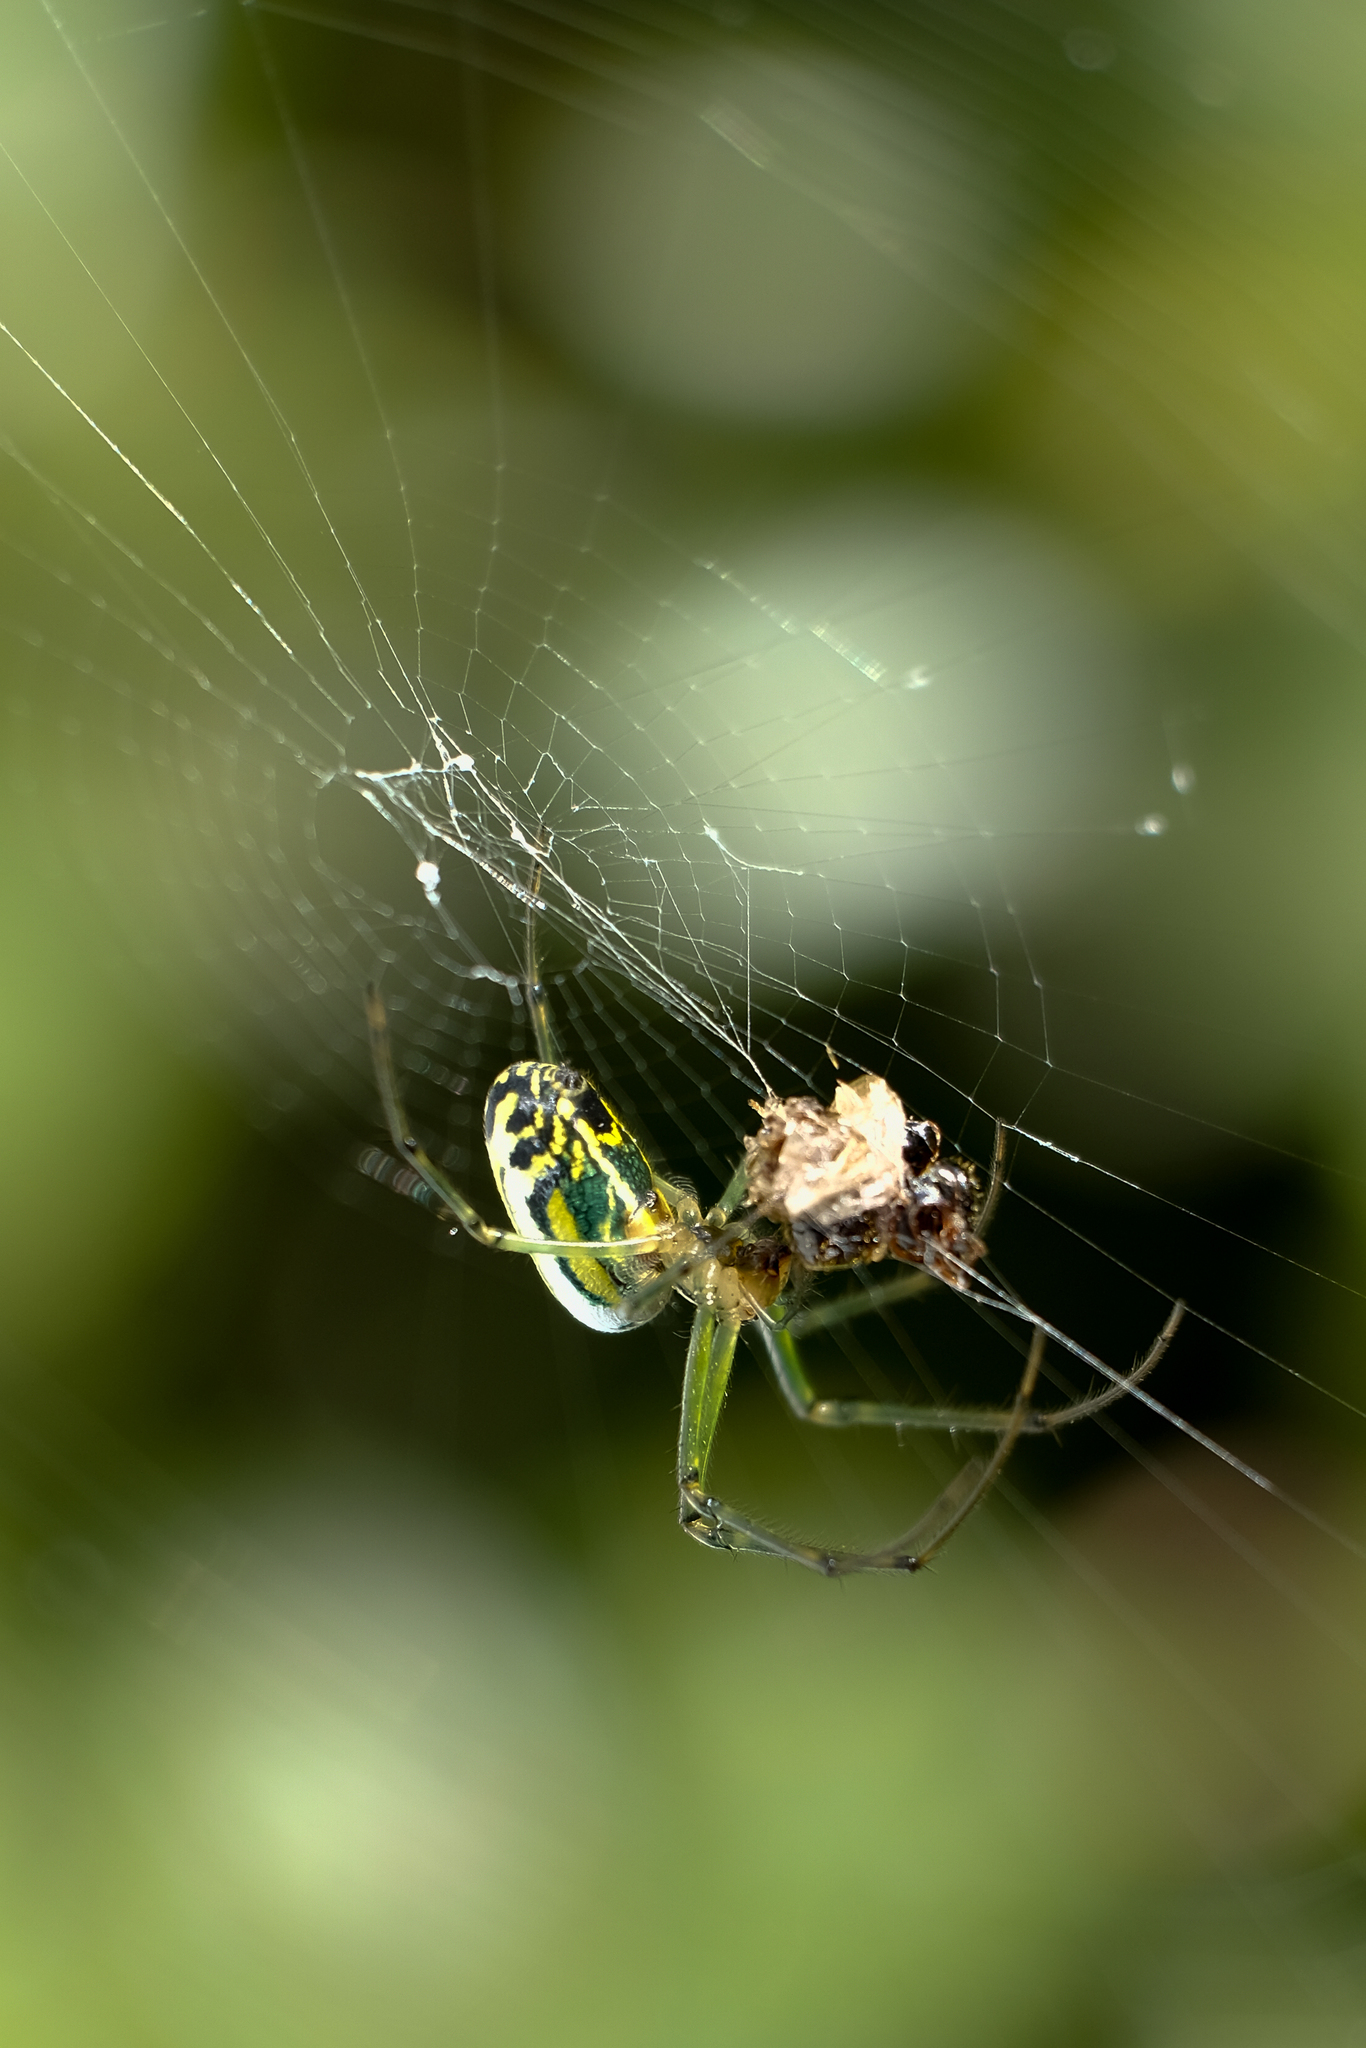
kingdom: Animalia
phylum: Arthropoda
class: Arachnida
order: Araneae
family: Tetragnathidae
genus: Leucauge
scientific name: Leucauge venusta
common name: Longjawed orb weavers
